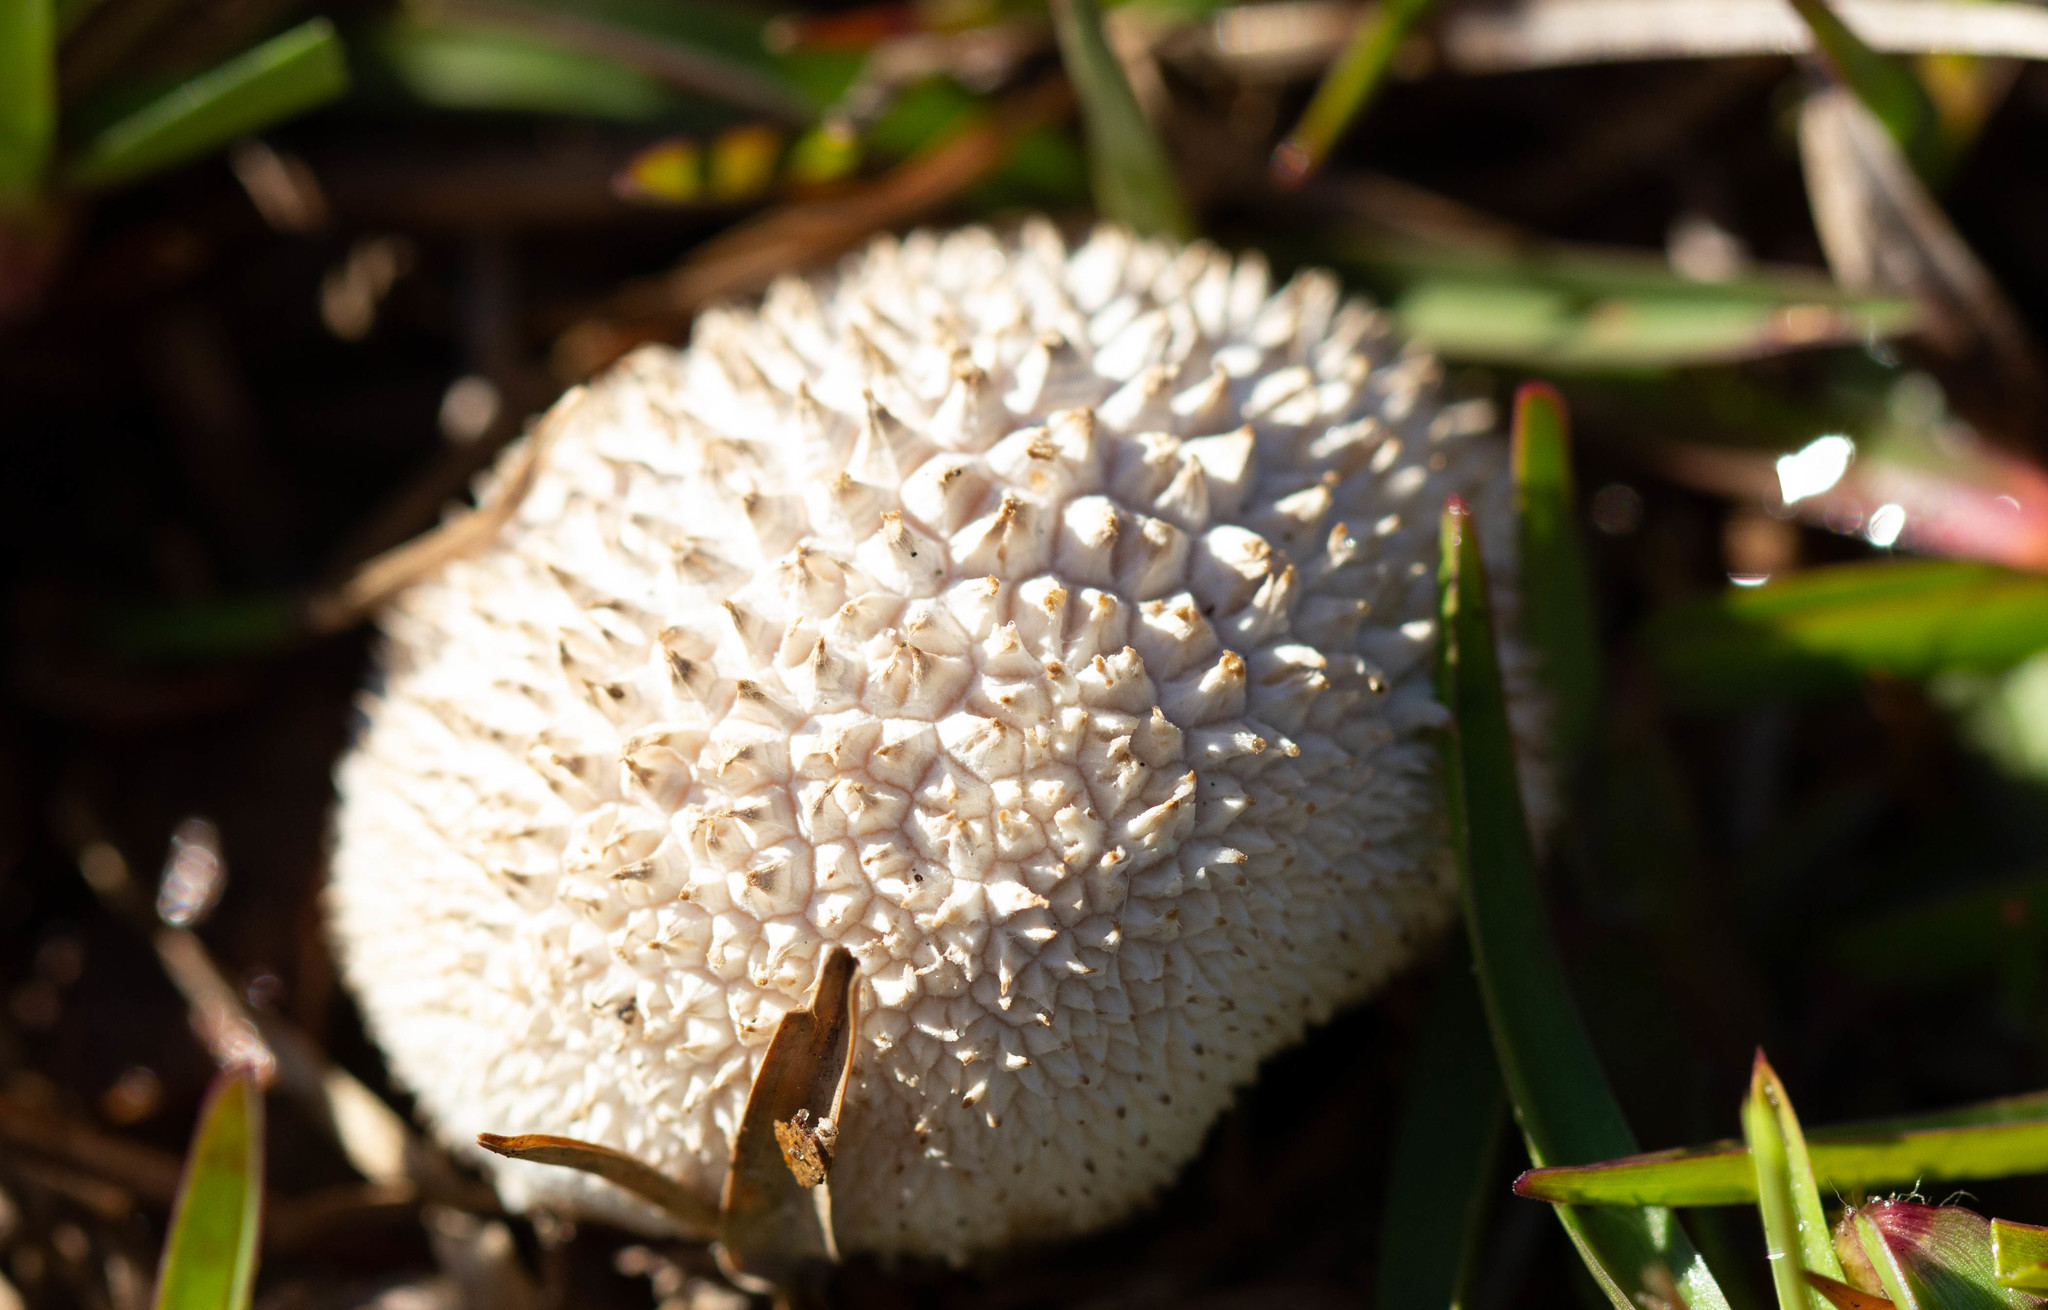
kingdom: Fungi
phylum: Basidiomycota
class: Agaricomycetes
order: Agaricales
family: Agaricaceae
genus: Lycoperdon
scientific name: Lycoperdon marginatum
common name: Peeling puffball
